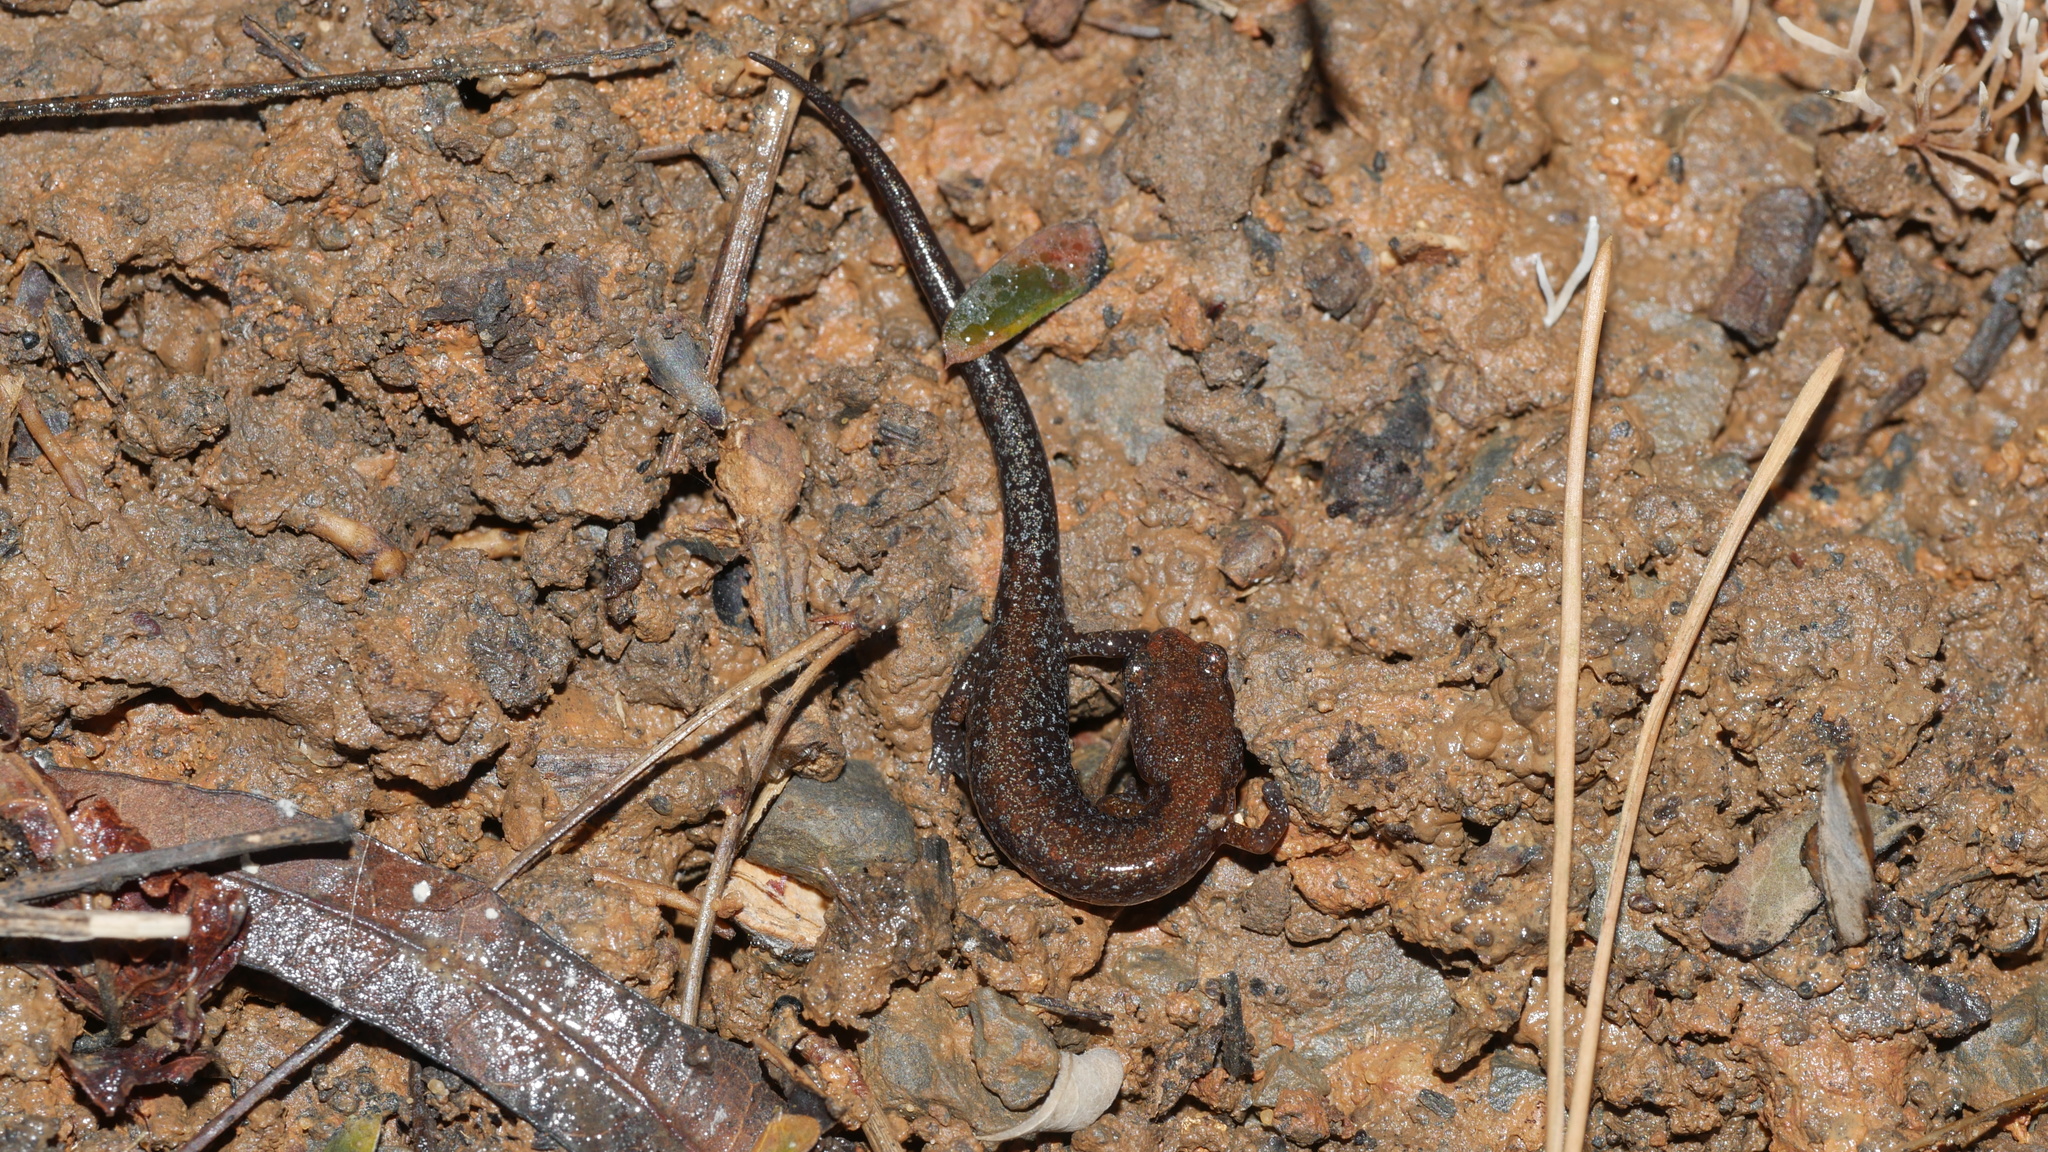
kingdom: Animalia
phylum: Chordata
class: Amphibia
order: Caudata
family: Plethodontidae
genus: Plethodon
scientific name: Plethodon
